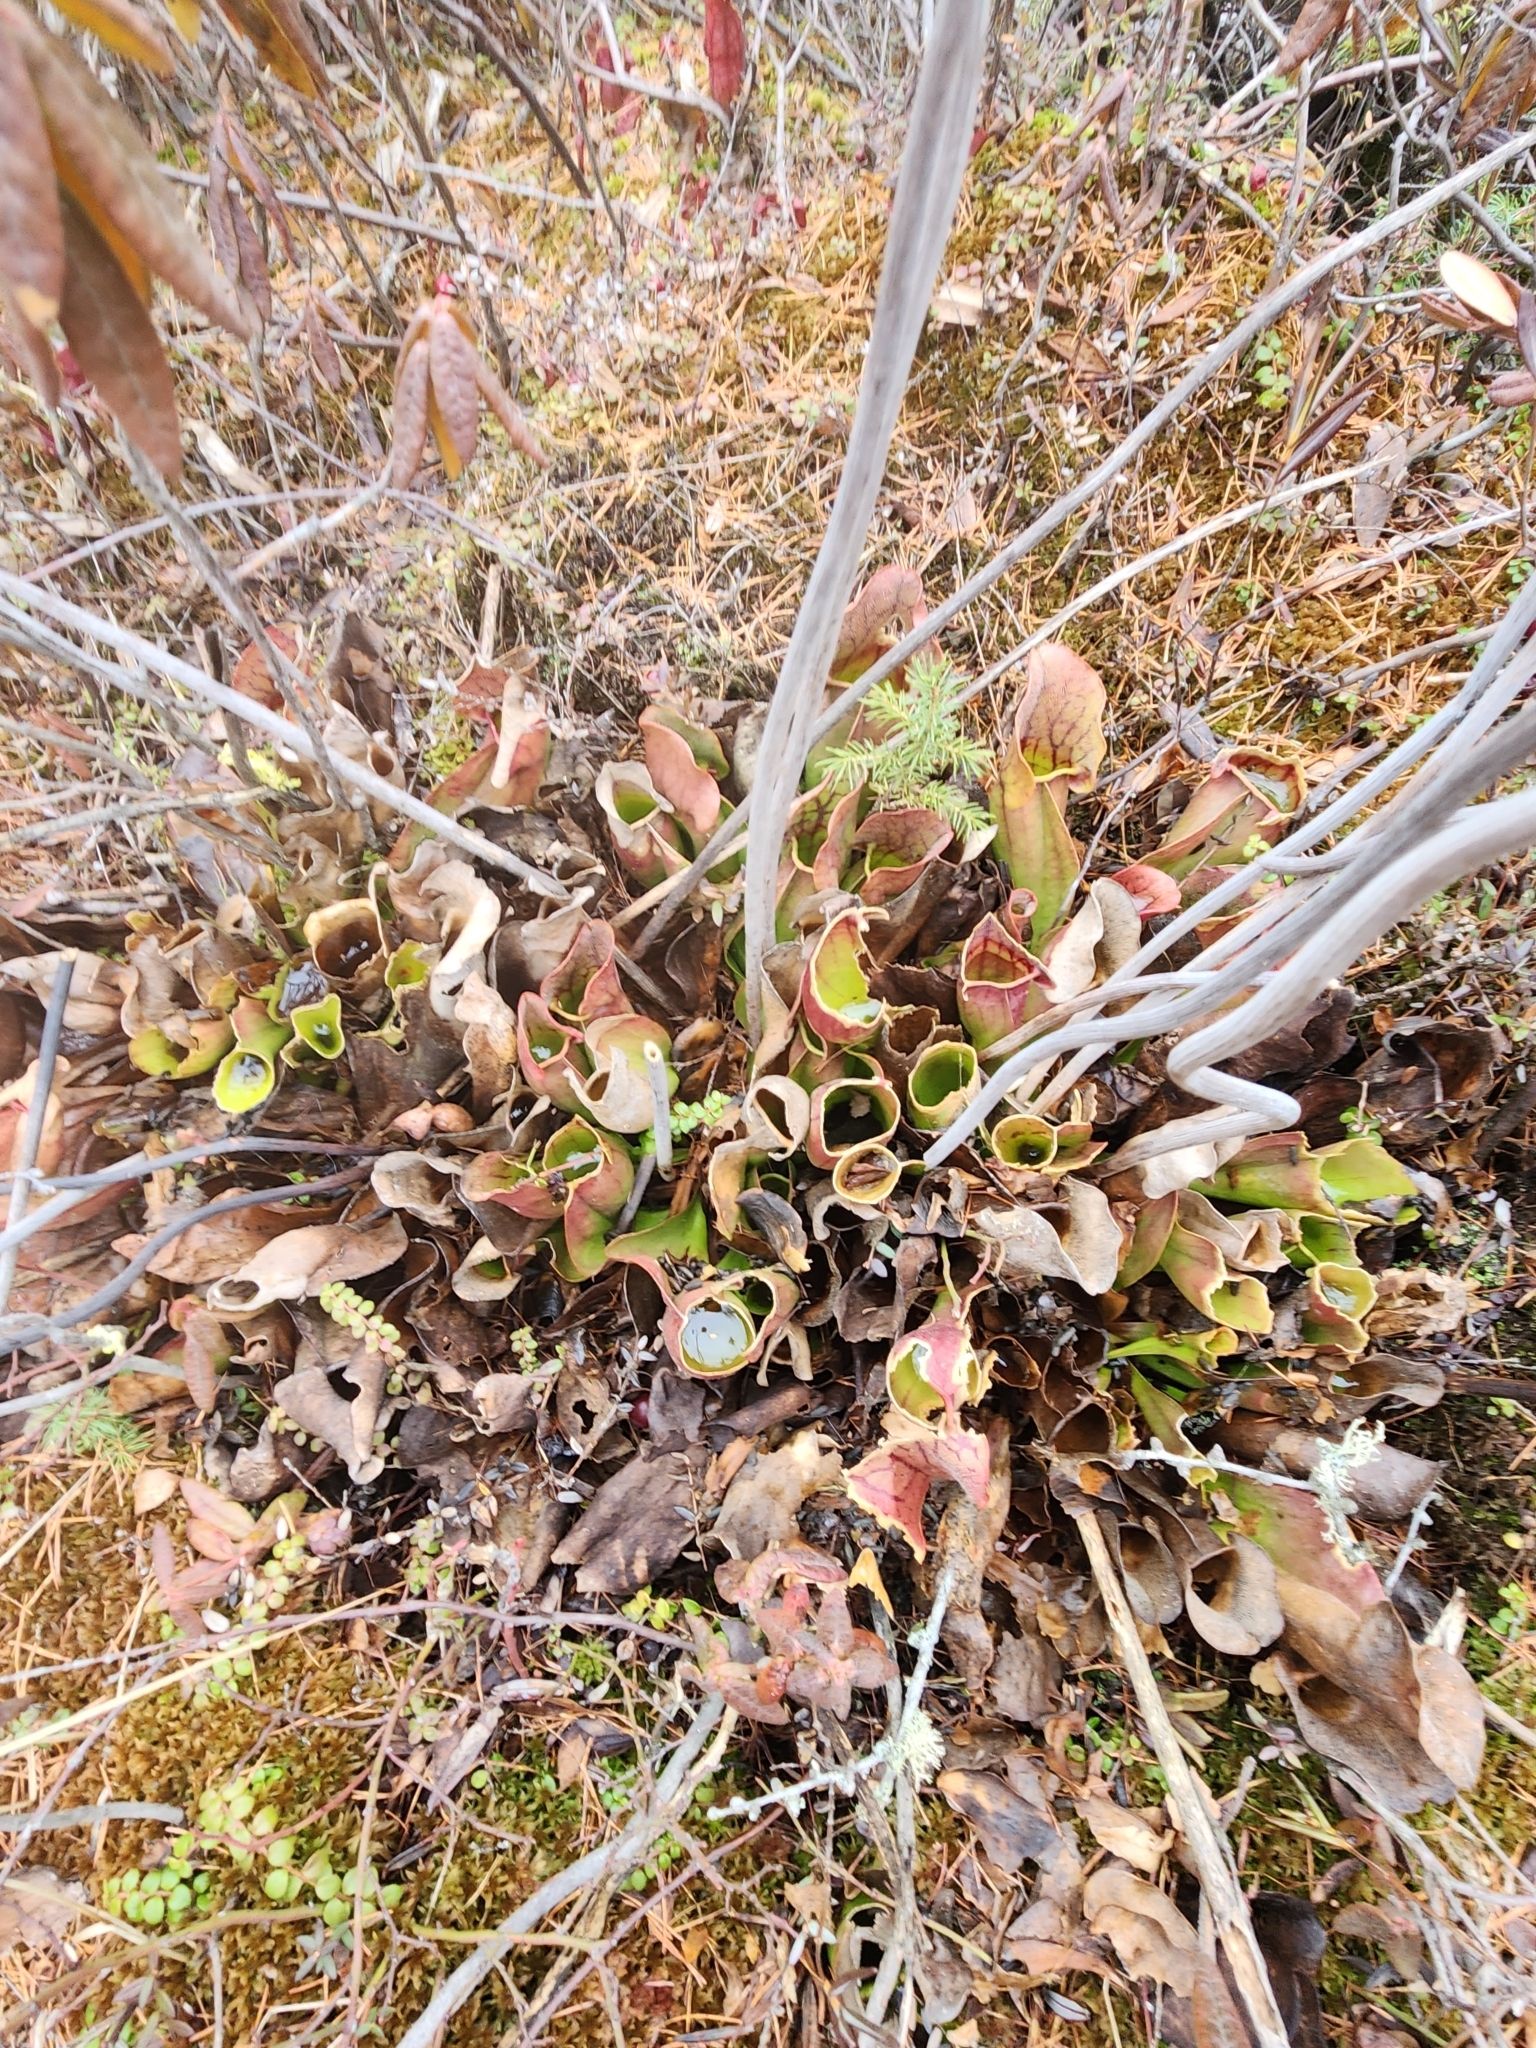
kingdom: Plantae
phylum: Tracheophyta
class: Magnoliopsida
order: Ericales
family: Sarraceniaceae
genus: Sarracenia
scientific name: Sarracenia purpurea
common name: Pitcherplant
